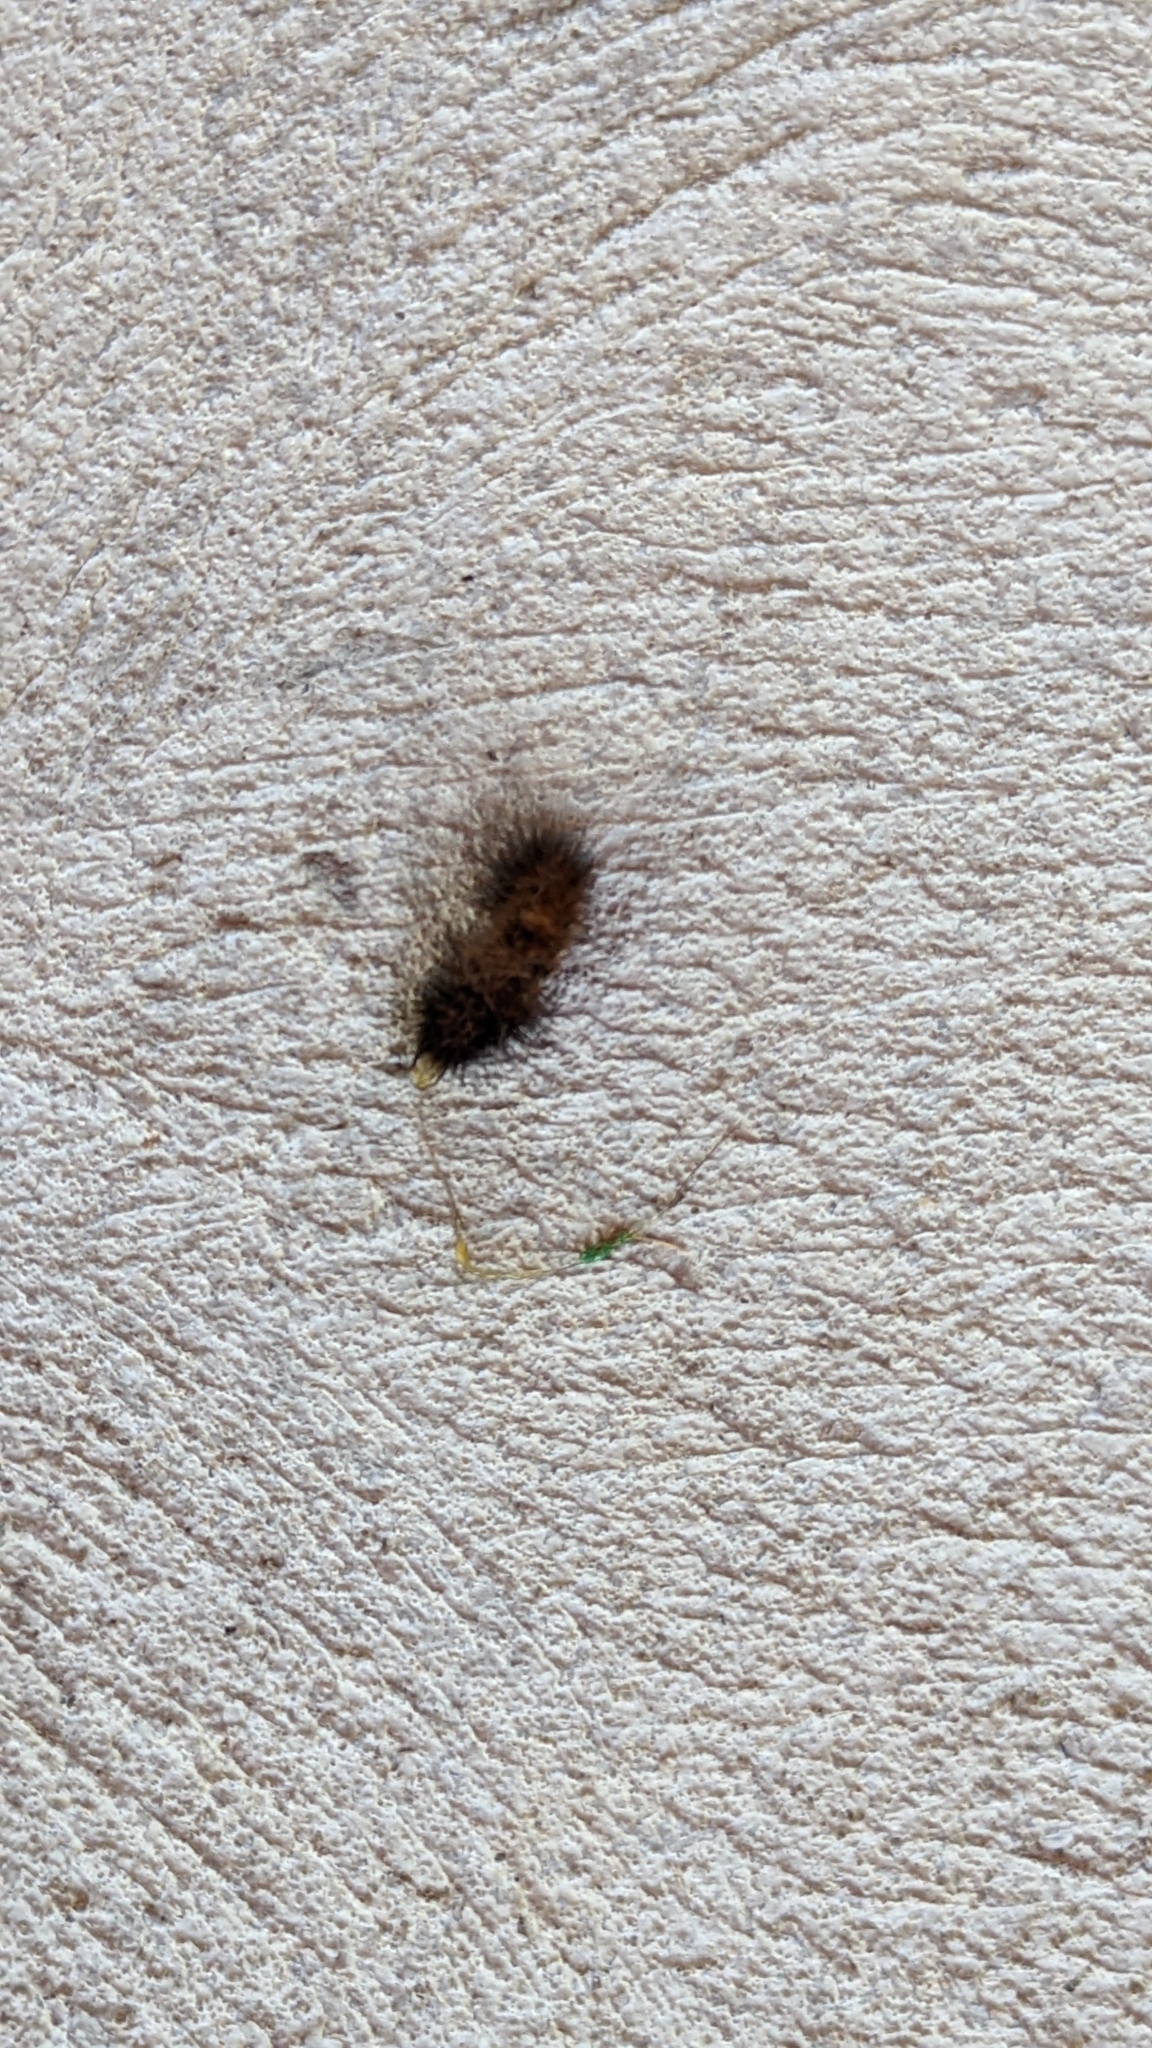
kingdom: Animalia
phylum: Arthropoda
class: Insecta
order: Lepidoptera
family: Erebidae
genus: Pyrrharctia
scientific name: Pyrrharctia isabella
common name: Isabella tiger moth
